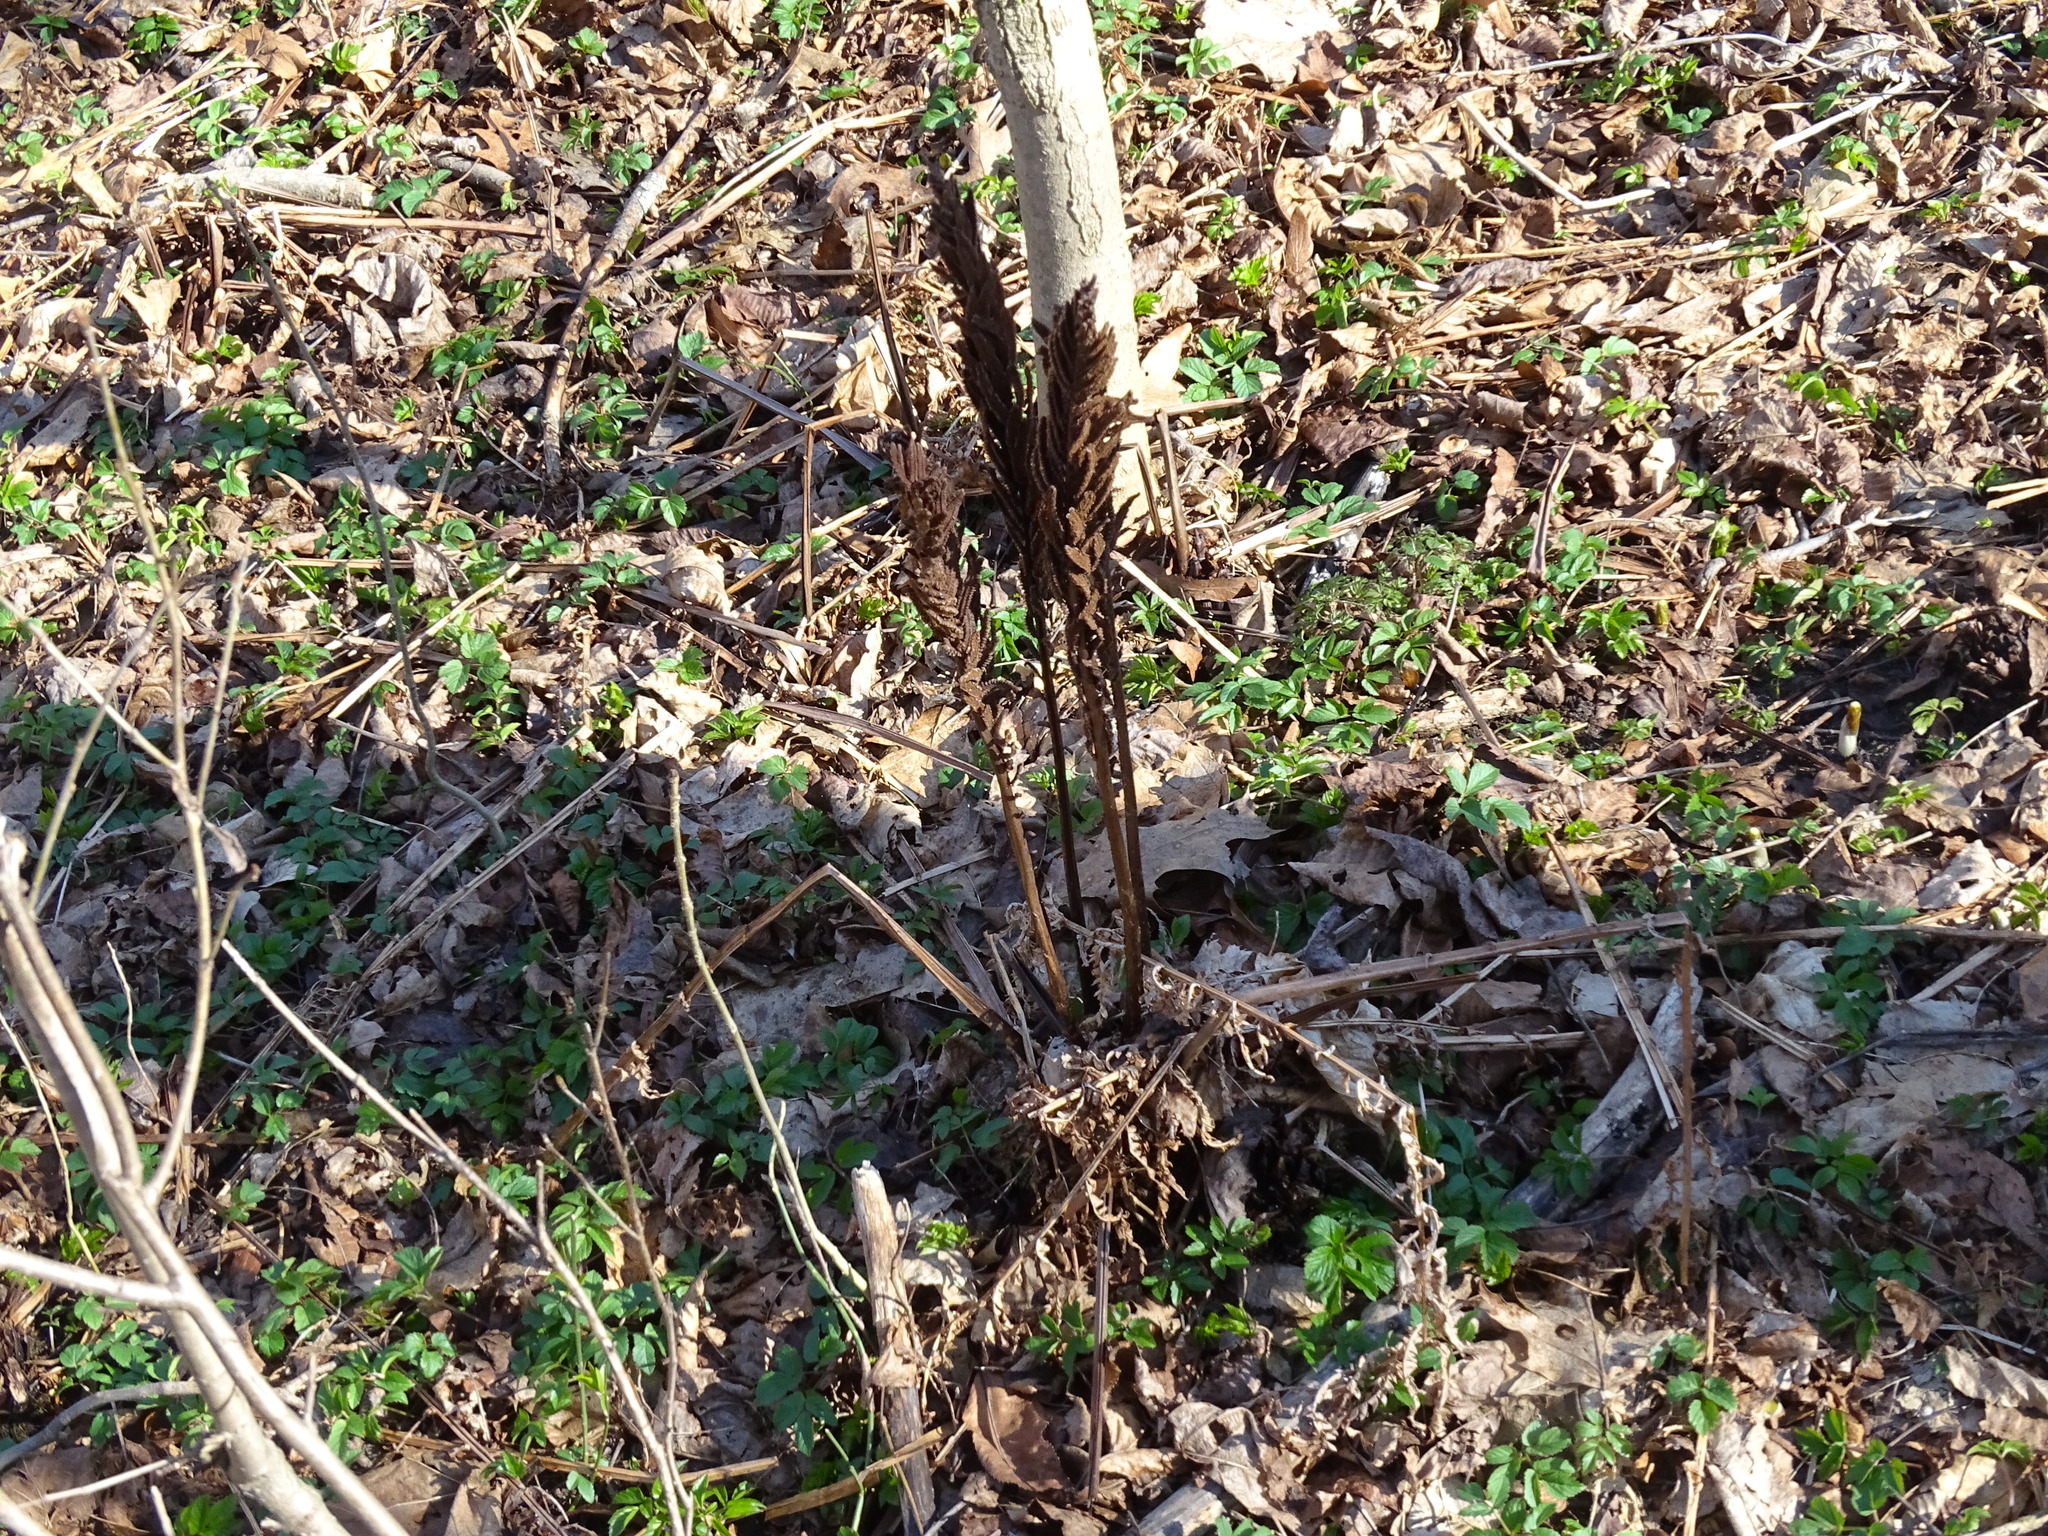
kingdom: Plantae
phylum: Tracheophyta
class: Polypodiopsida
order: Polypodiales
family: Onocleaceae
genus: Matteuccia
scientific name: Matteuccia struthiopteris
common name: Ostrich fern
